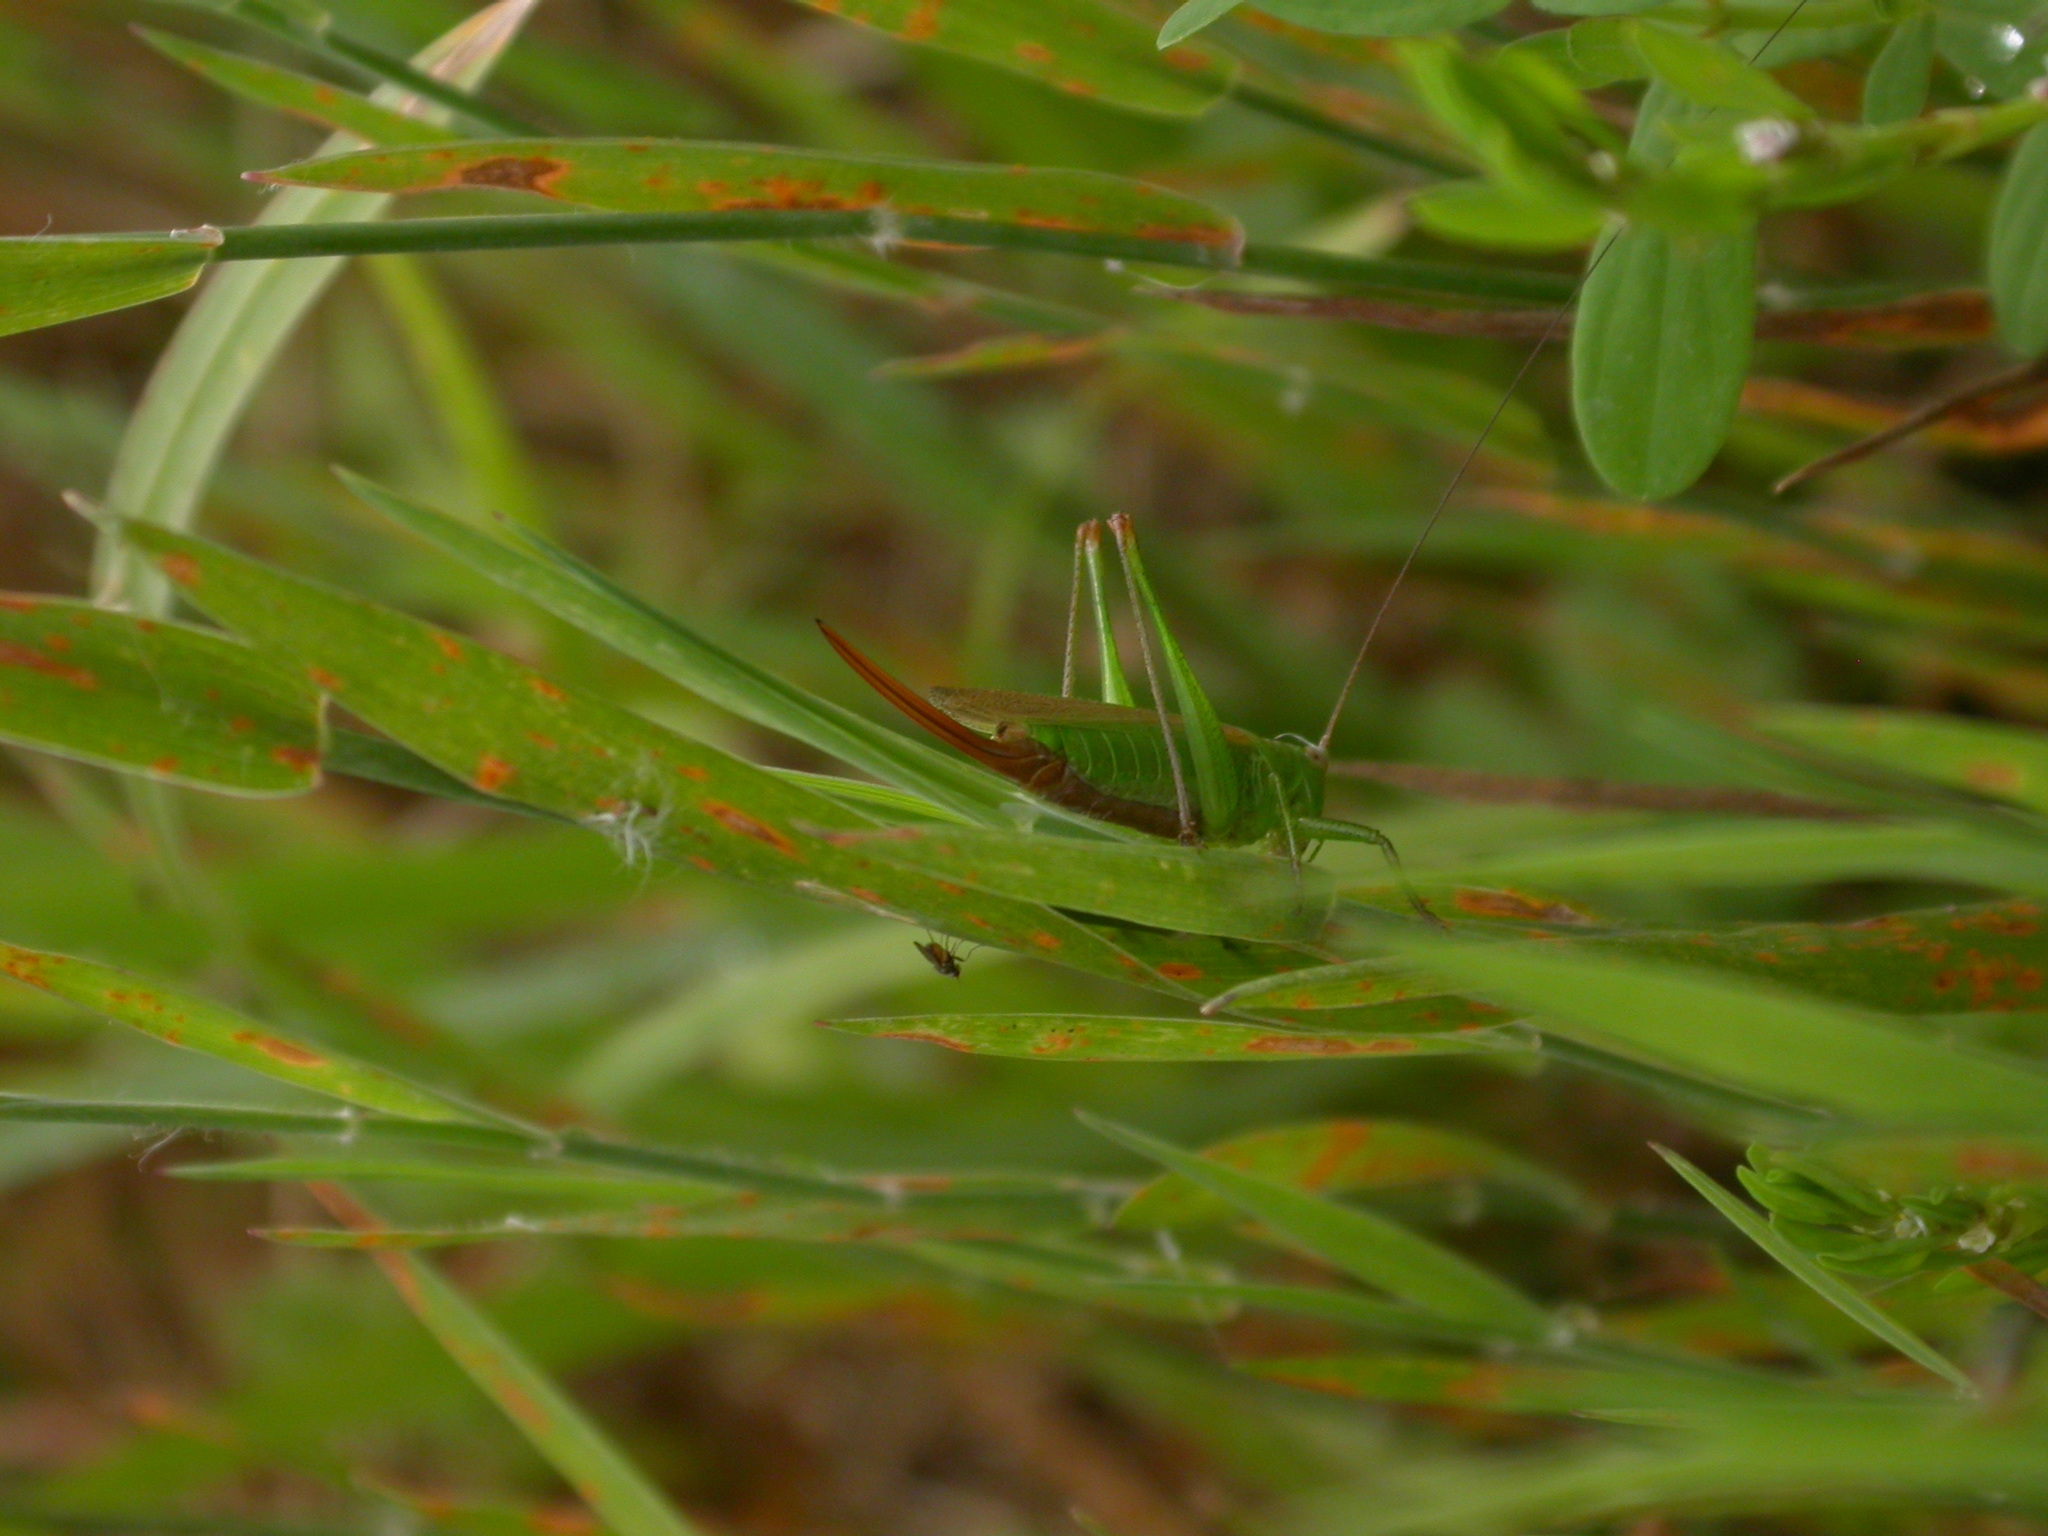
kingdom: Animalia
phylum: Arthropoda
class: Insecta
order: Orthoptera
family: Tettigoniidae
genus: Conocephalus
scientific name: Conocephalus fuscus
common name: Long-winged conehead
